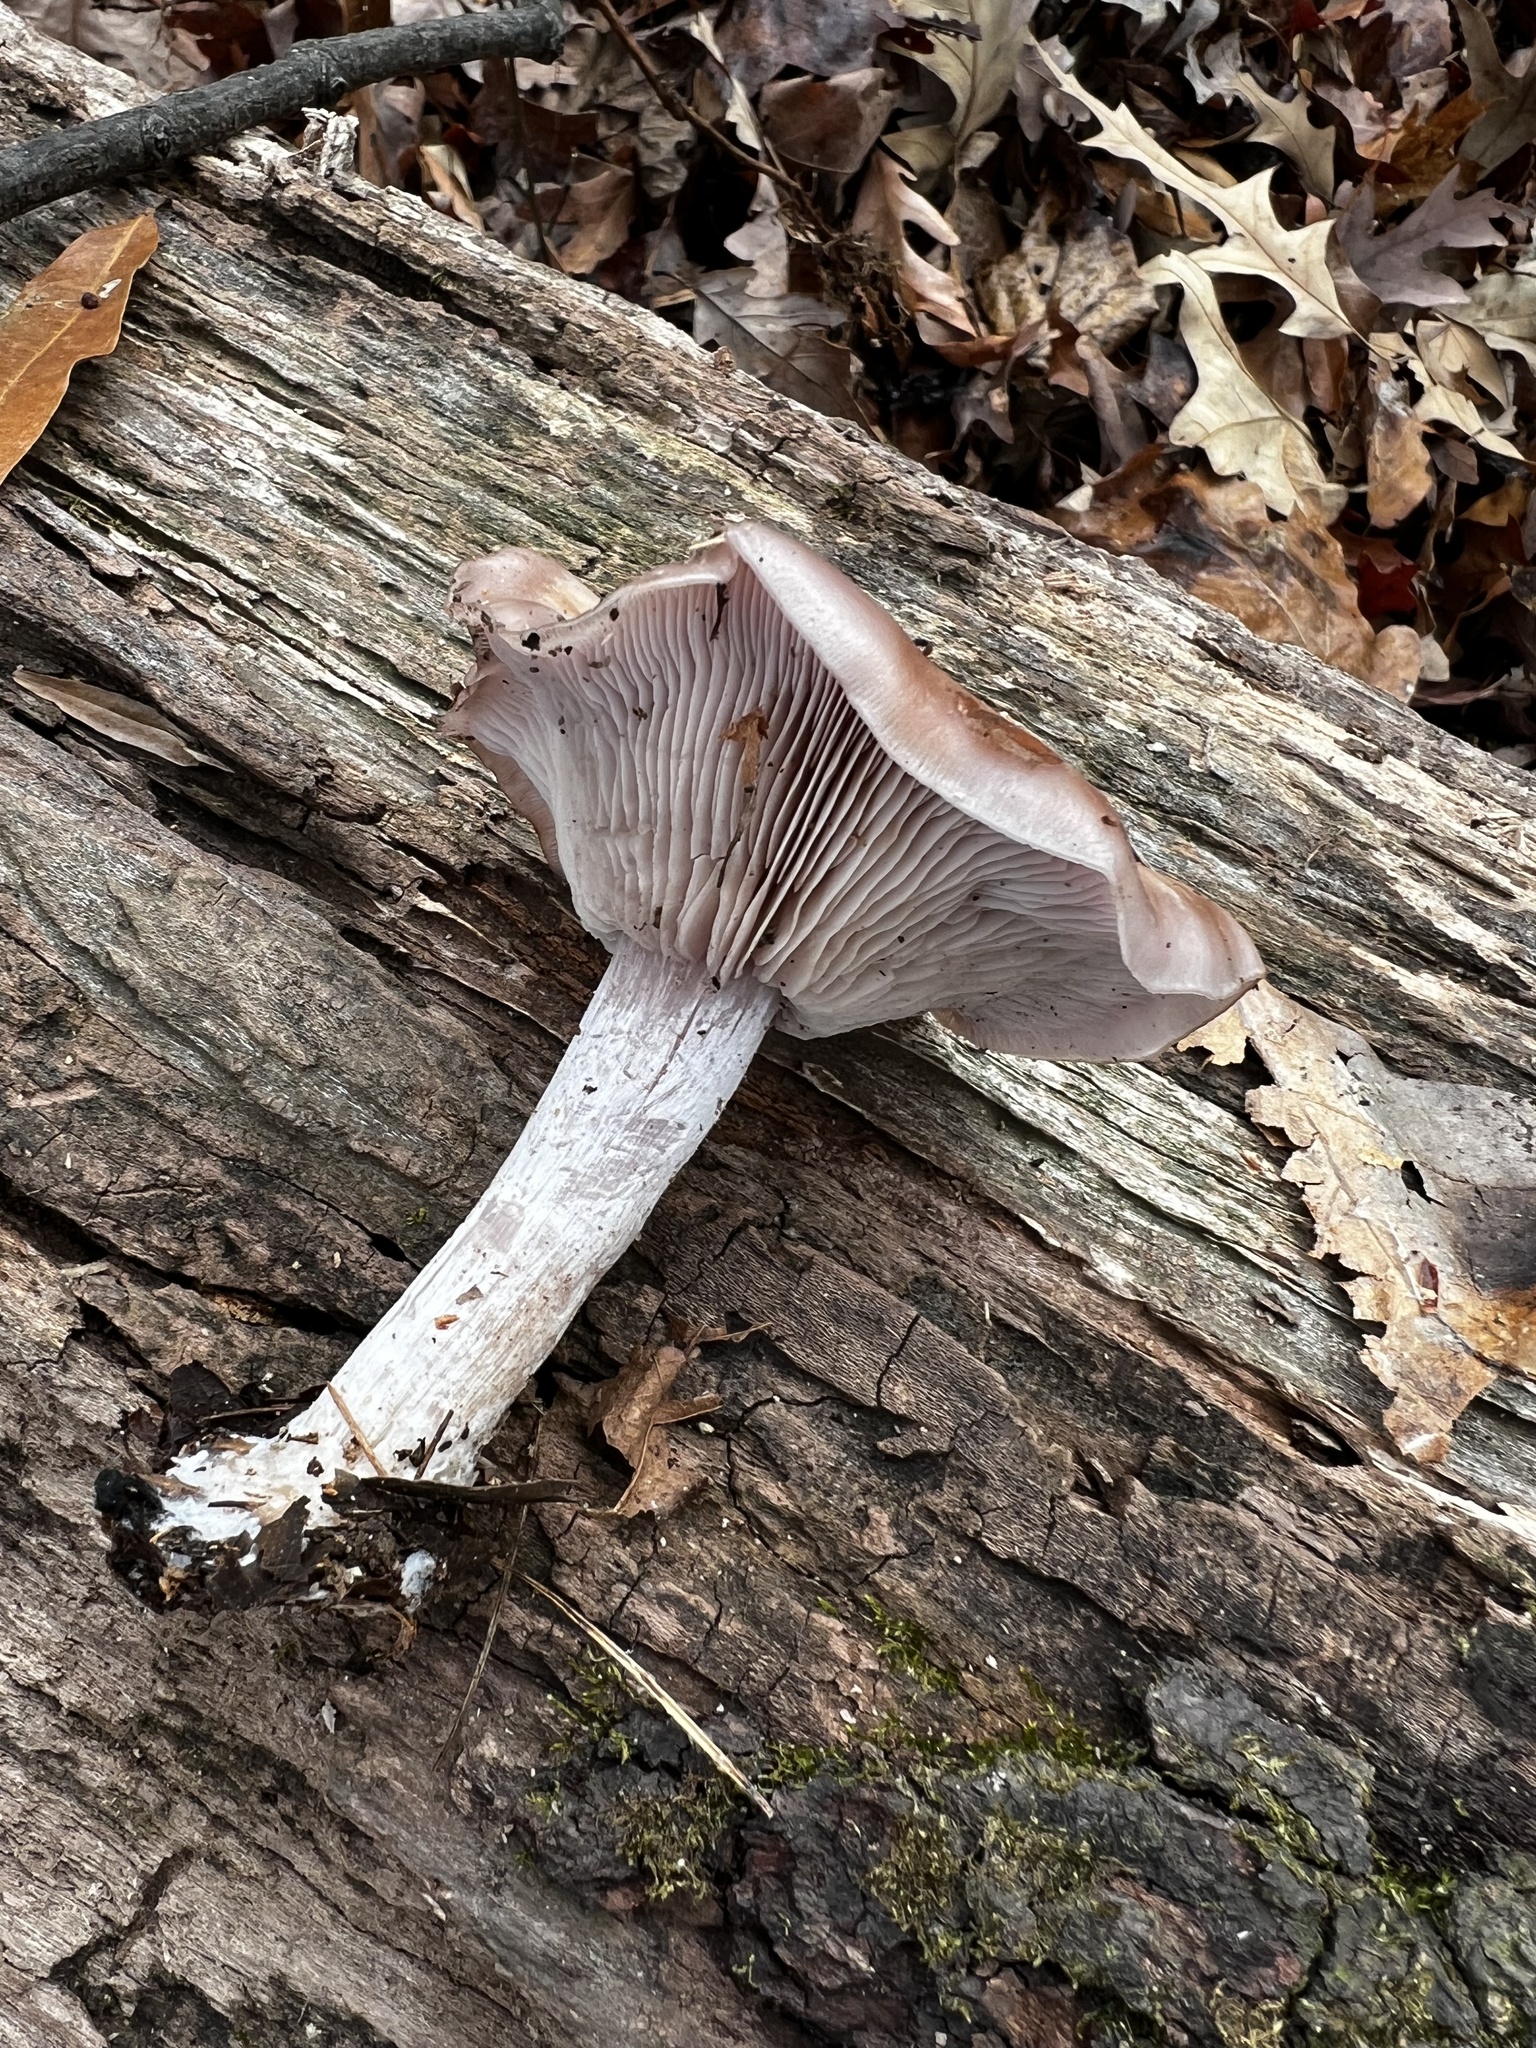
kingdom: Fungi
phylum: Basidiomycota
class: Agaricomycetes
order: Agaricales
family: Tricholomataceae
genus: Collybia
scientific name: Collybia
